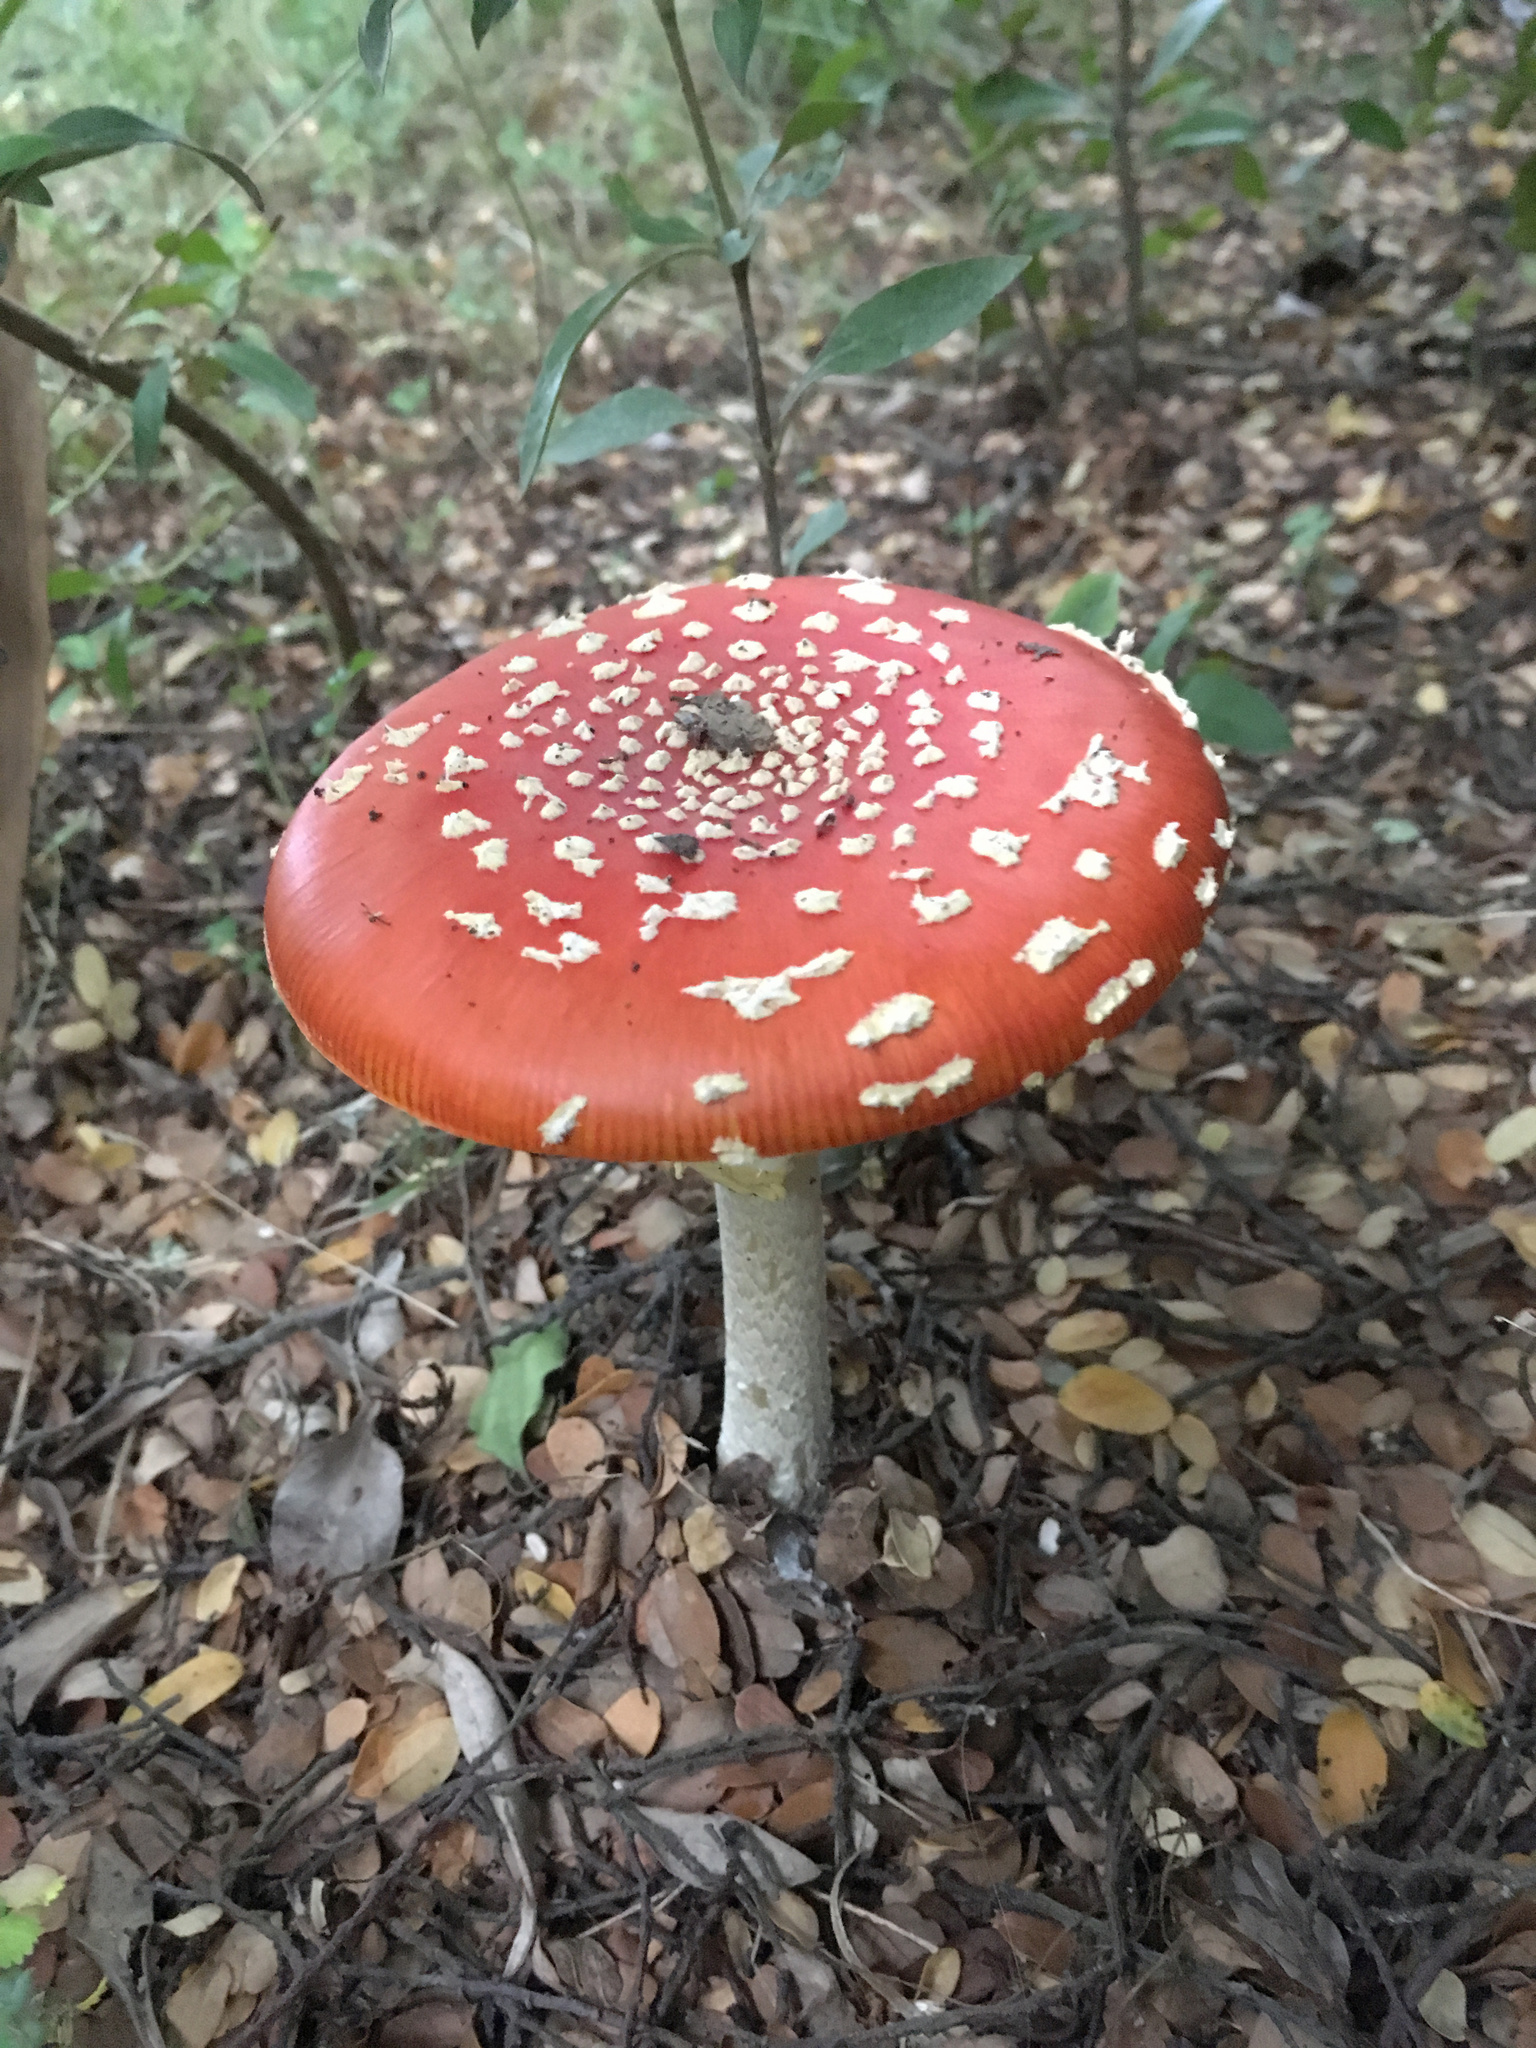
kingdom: Fungi
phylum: Basidiomycota
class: Agaricomycetes
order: Agaricales
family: Amanitaceae
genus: Amanita
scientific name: Amanita muscaria
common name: Fly agaric
